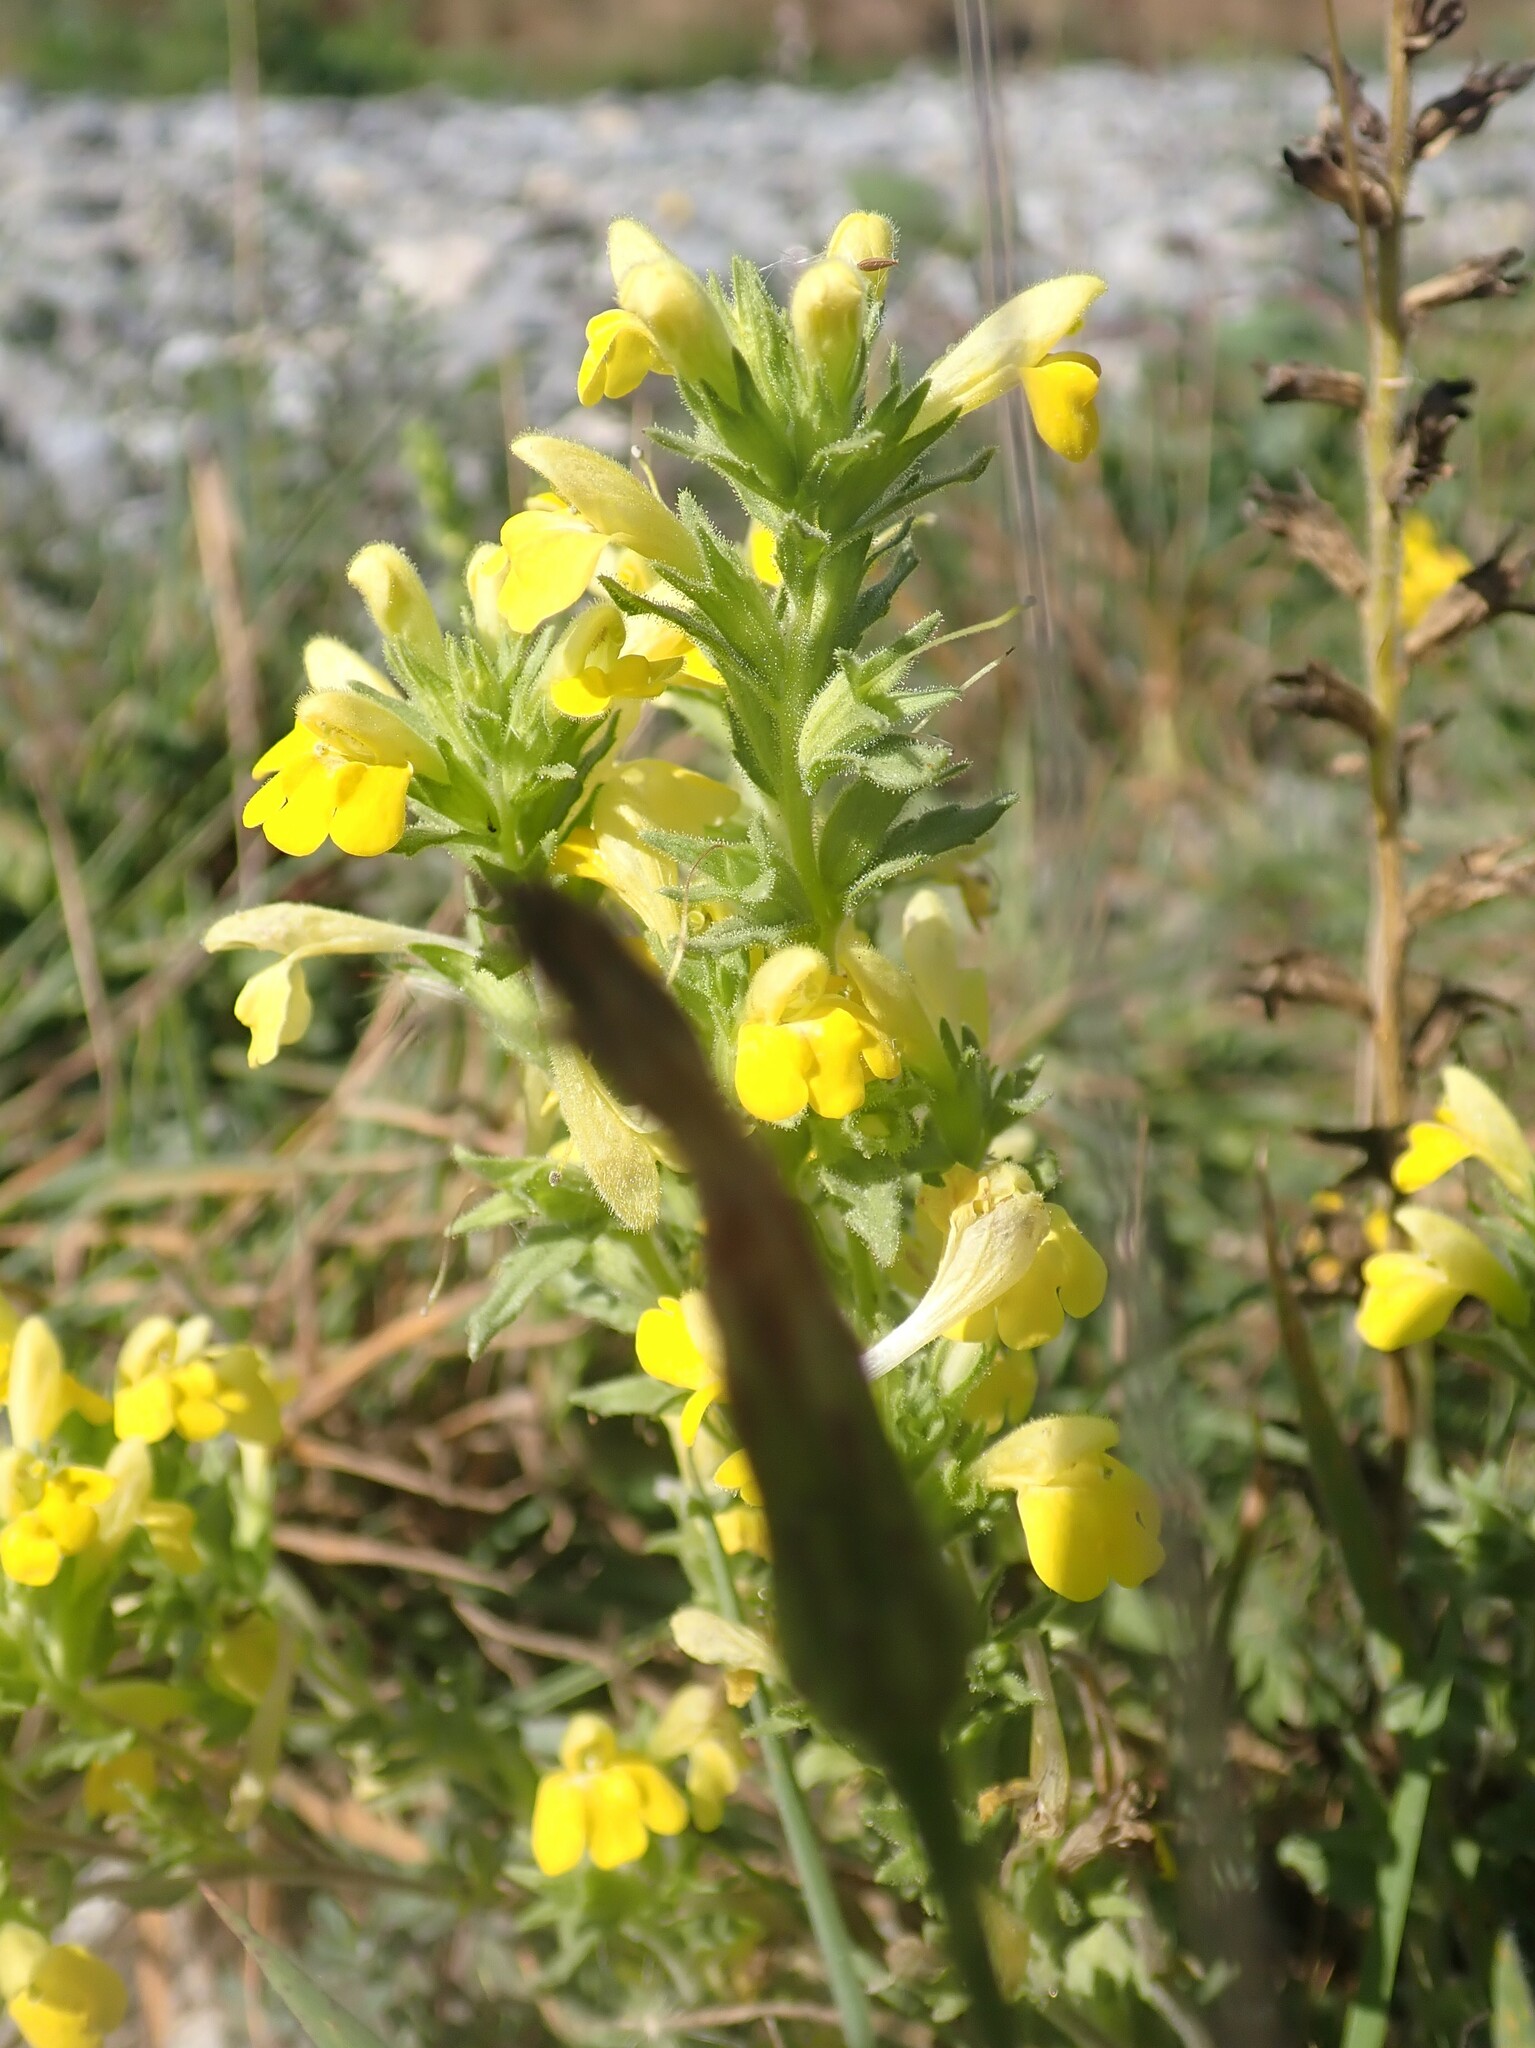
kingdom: Plantae
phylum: Tracheophyta
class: Magnoliopsida
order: Lamiales
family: Orobanchaceae
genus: Bellardia
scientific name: Bellardia viscosa
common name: Sticky parentucellia
